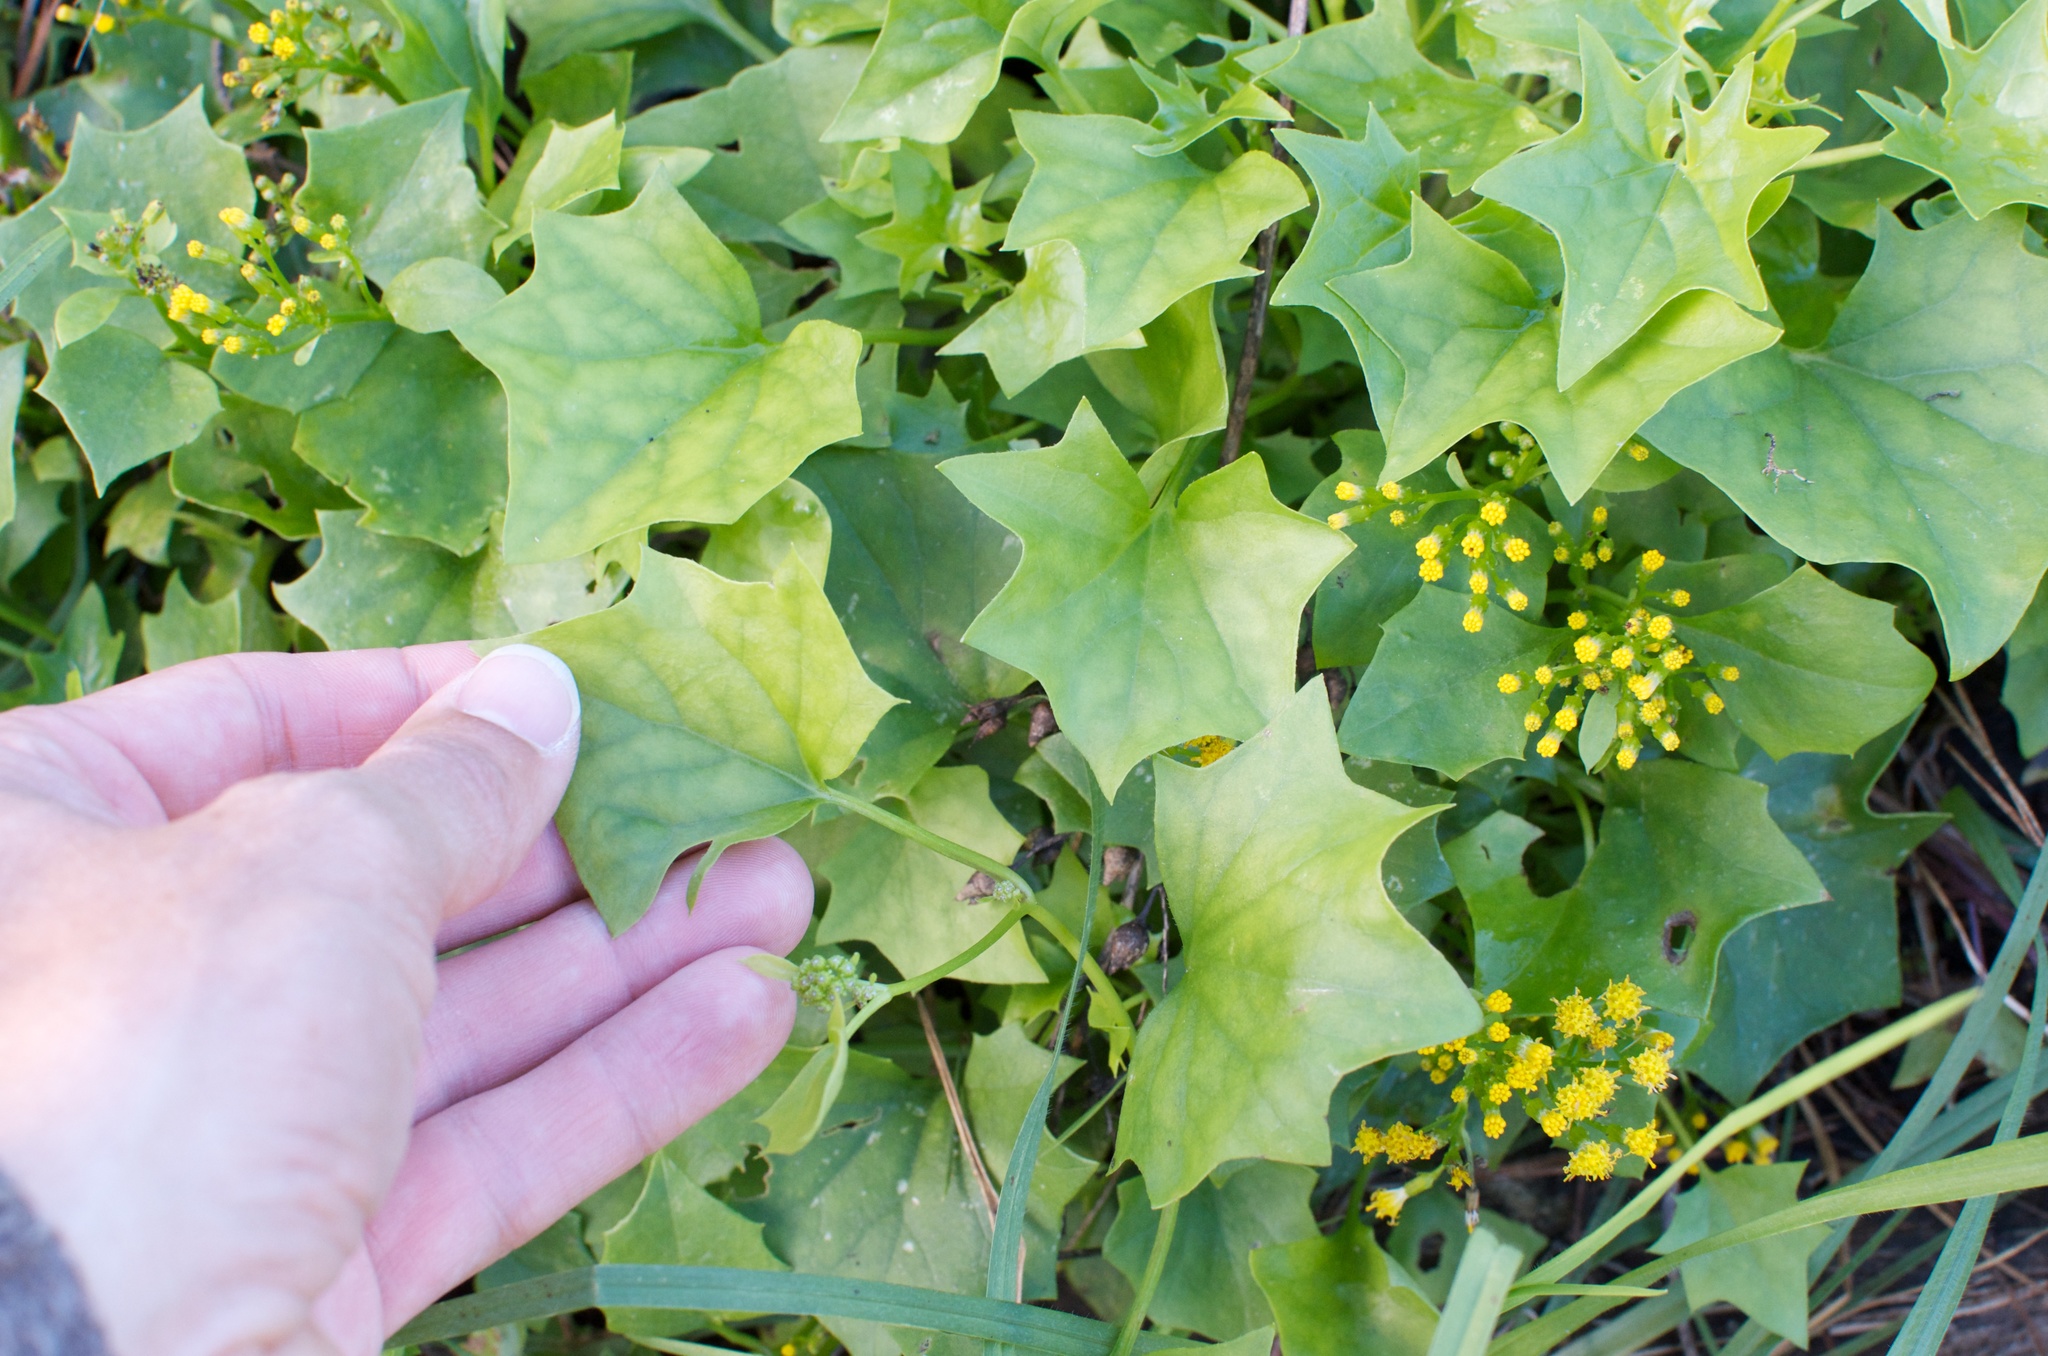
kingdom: Plantae
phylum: Tracheophyta
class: Magnoliopsida
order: Asterales
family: Asteraceae
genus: Delairea
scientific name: Delairea odorata
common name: Cape-ivy
